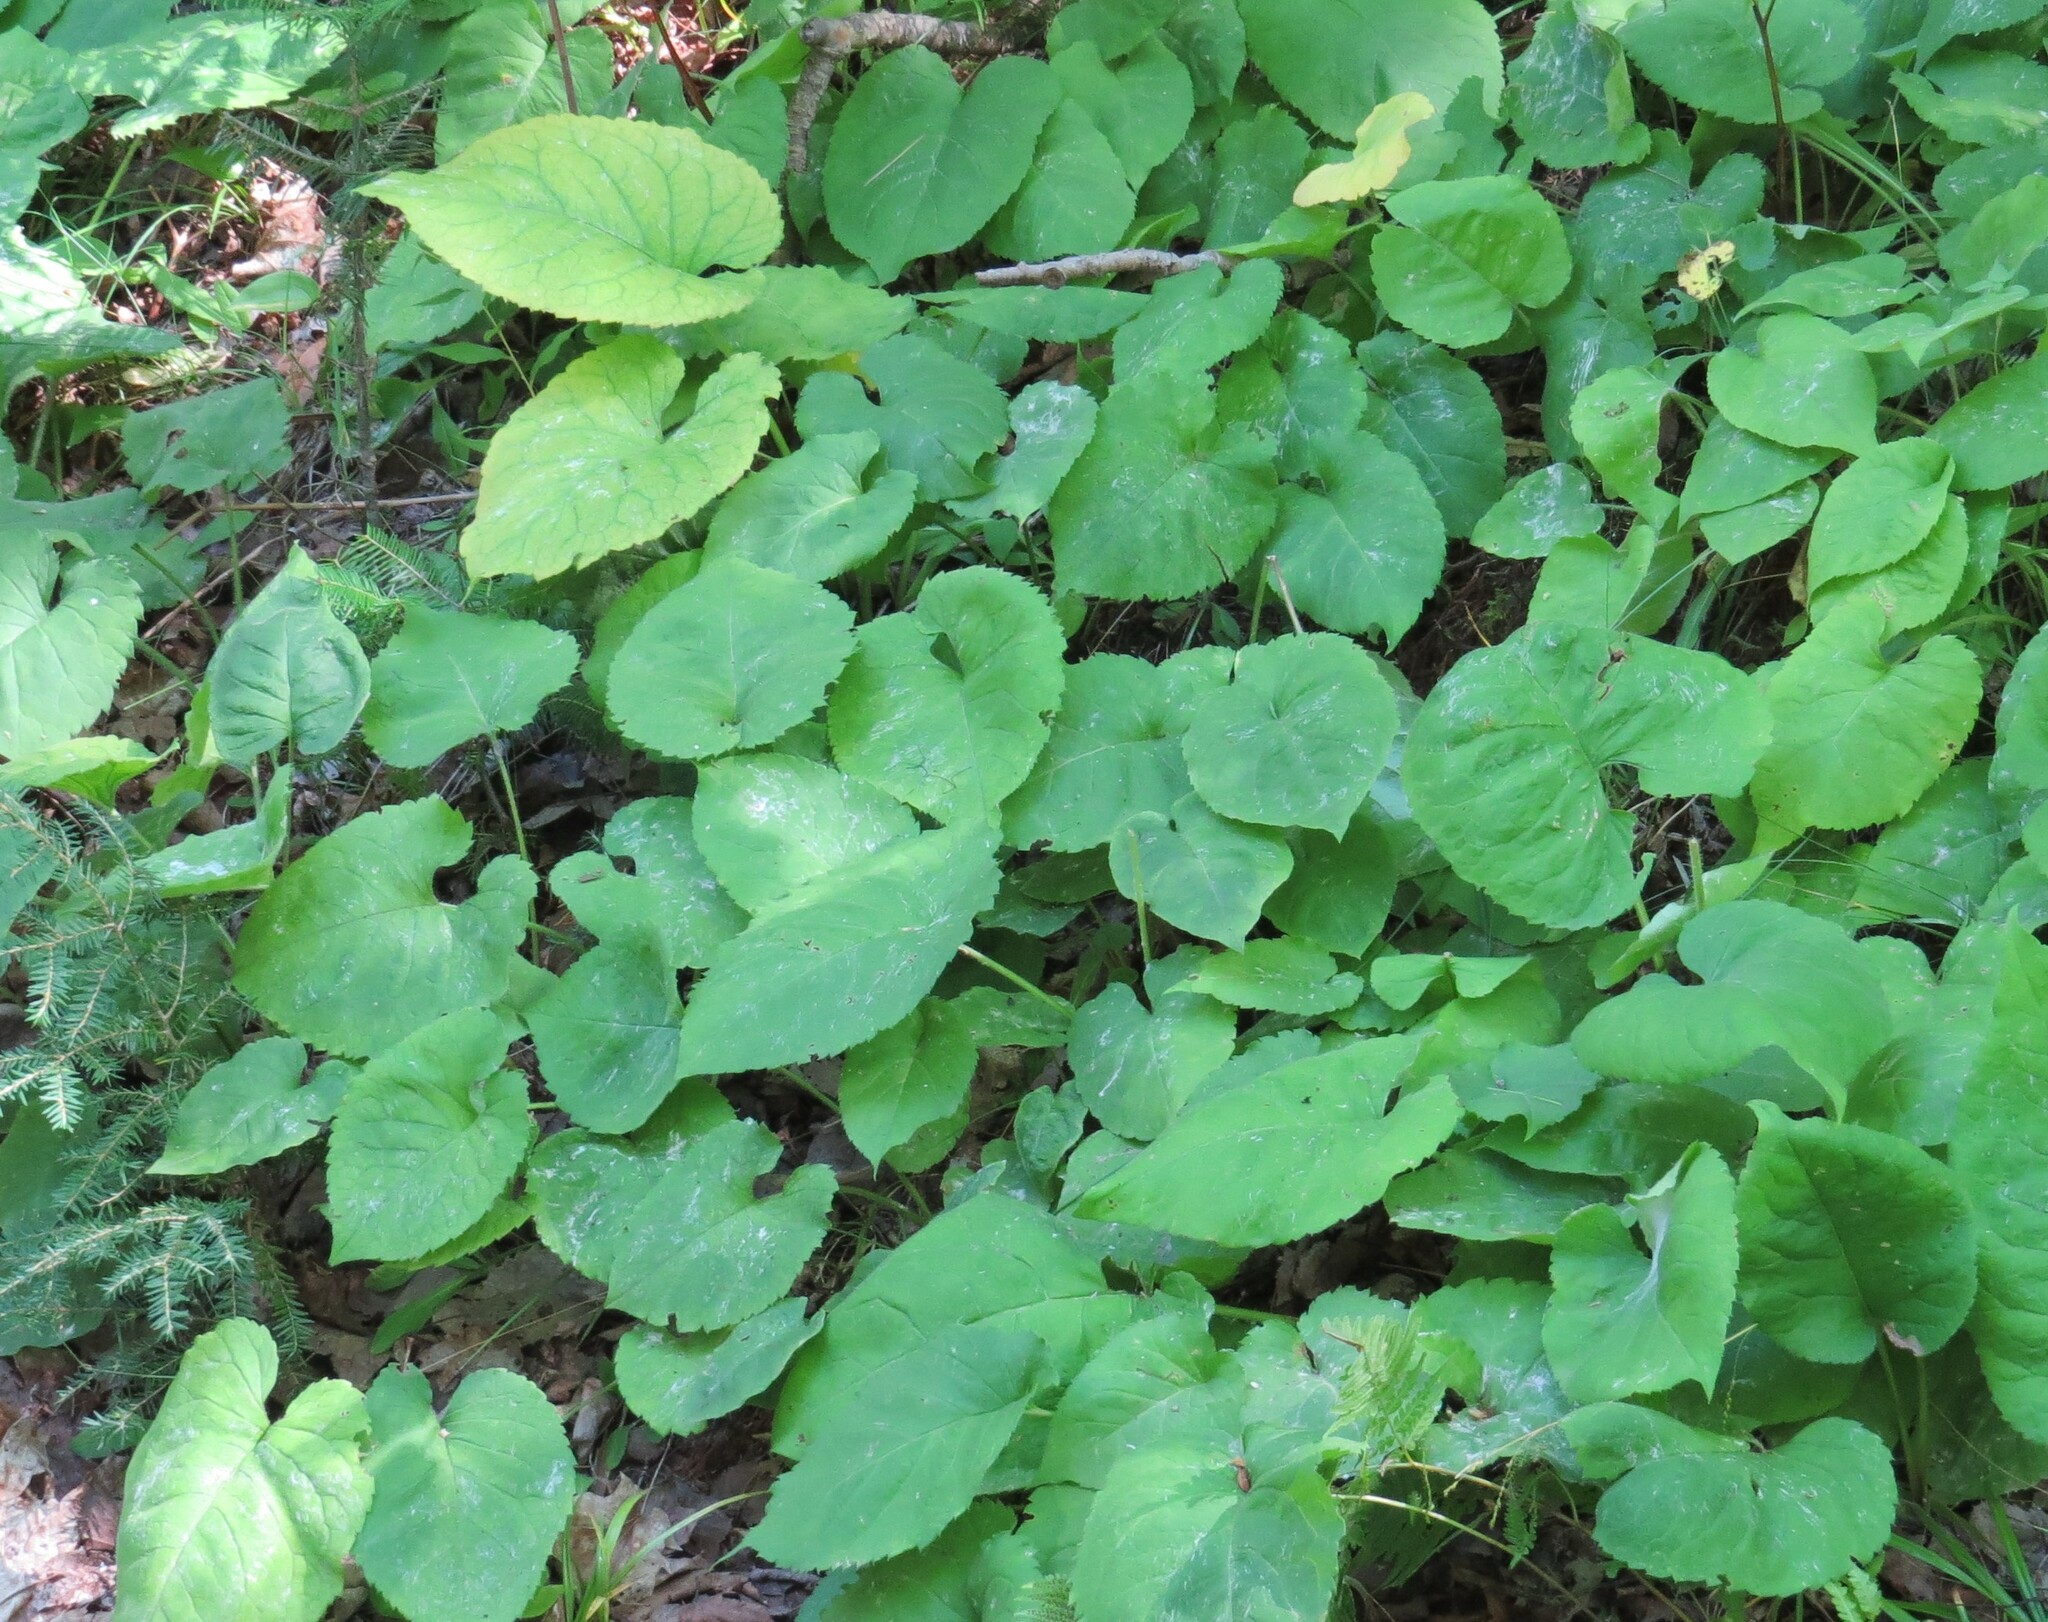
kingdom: Plantae
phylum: Tracheophyta
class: Magnoliopsida
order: Asterales
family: Asteraceae
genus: Eurybia
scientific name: Eurybia macrophylla
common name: Big-leaved aster
